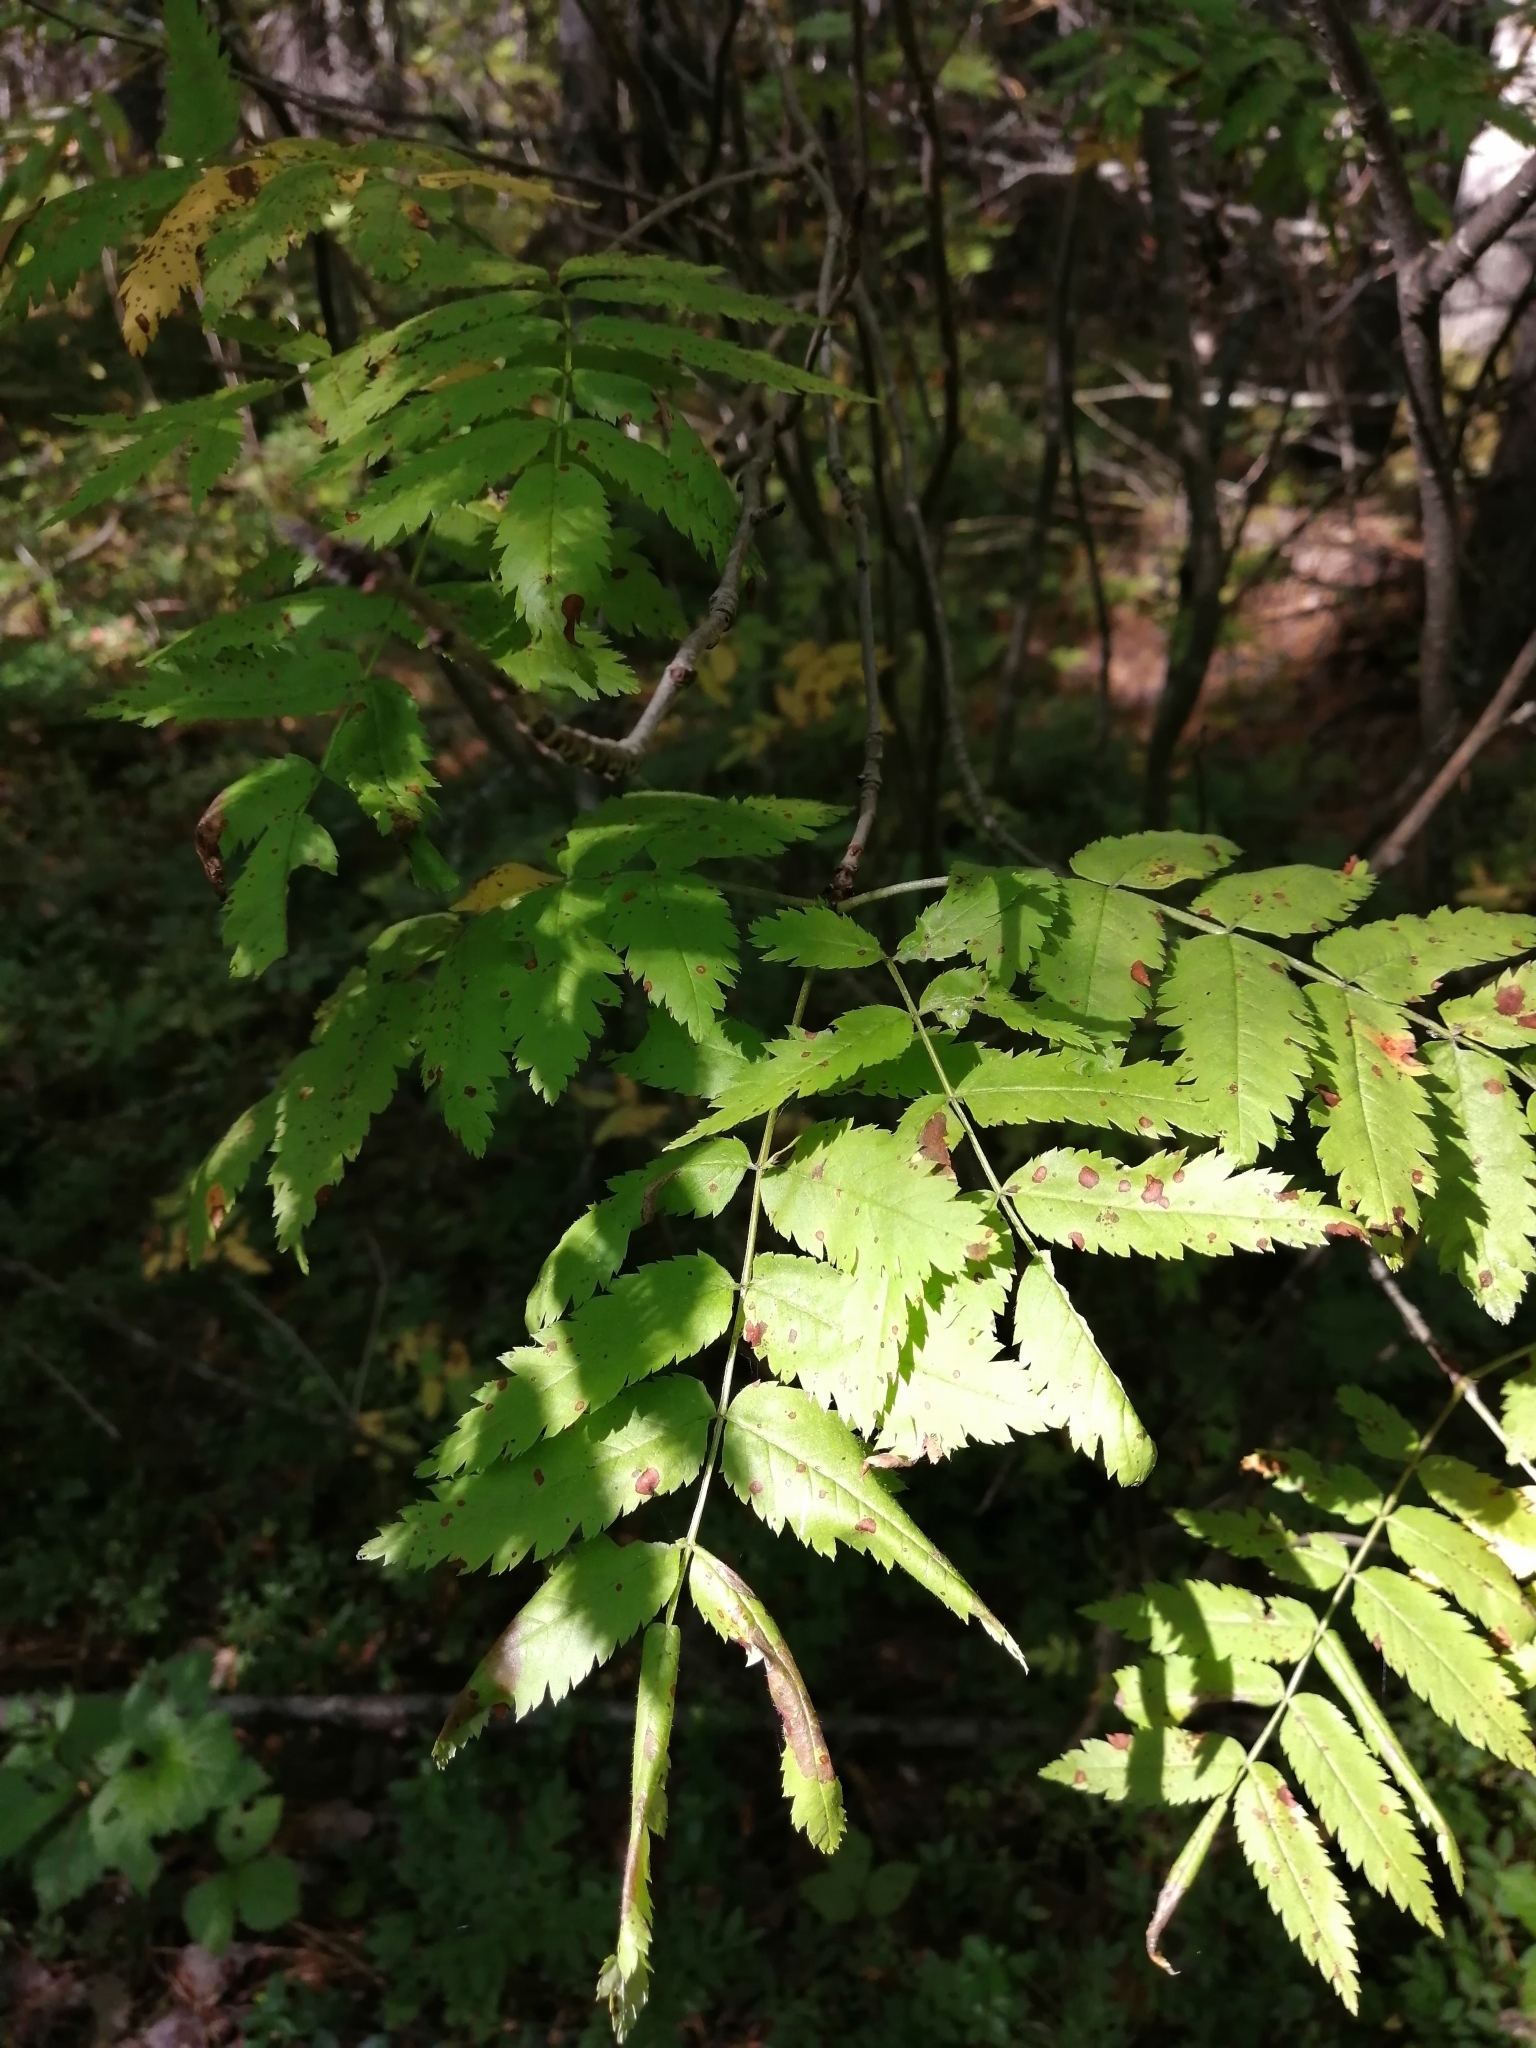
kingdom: Plantae
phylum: Tracheophyta
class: Magnoliopsida
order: Rosales
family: Rosaceae
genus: Sorbus
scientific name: Sorbus aucuparia
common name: Rowan
